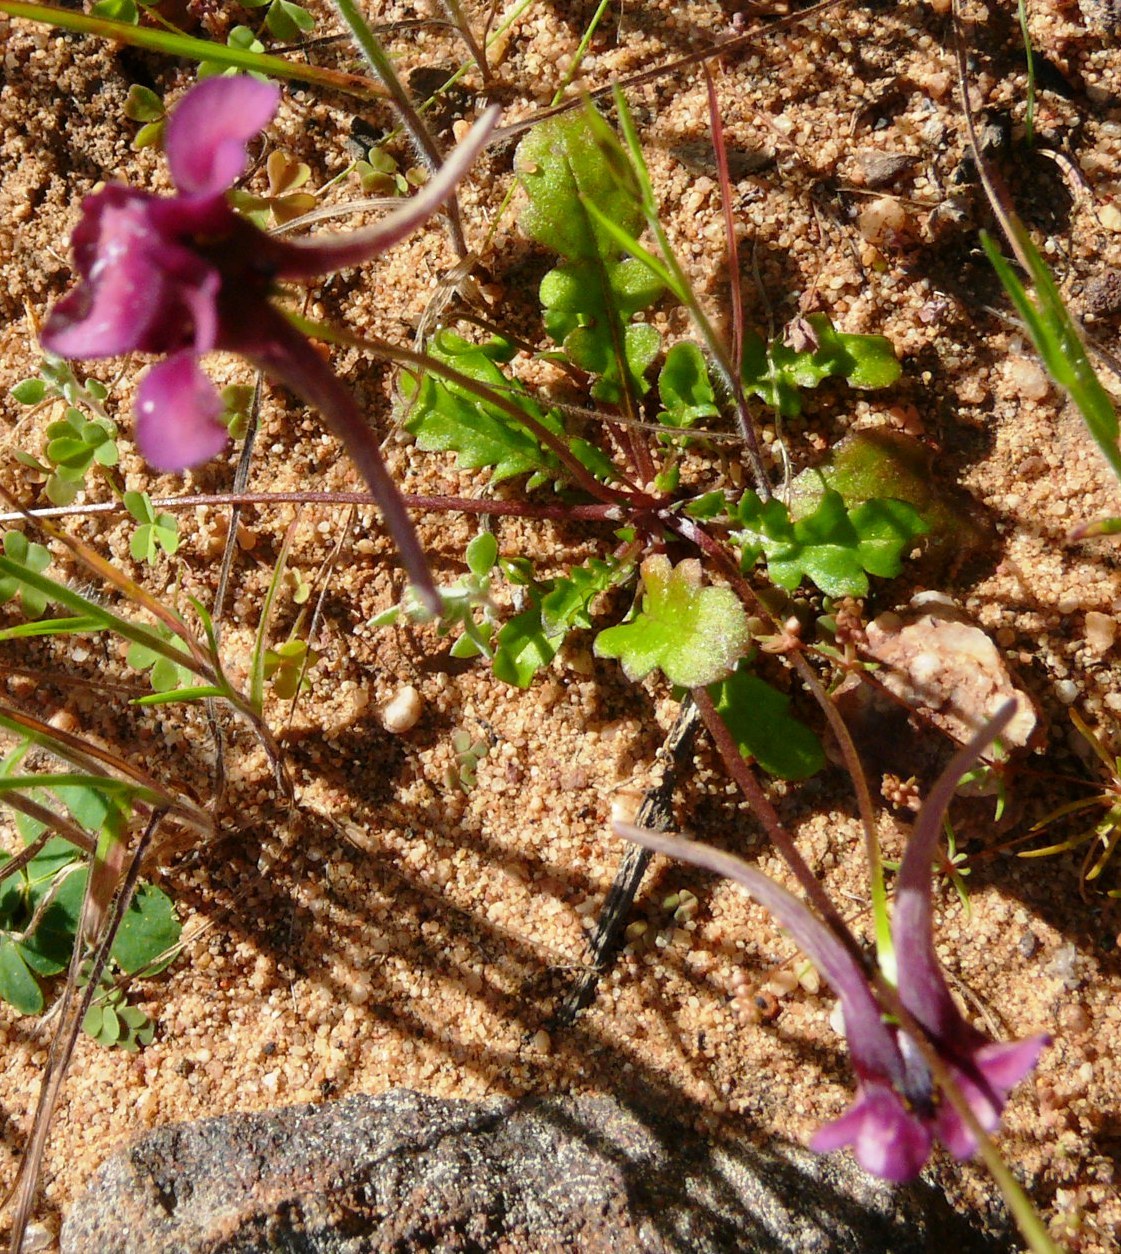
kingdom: Plantae
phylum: Tracheophyta
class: Magnoliopsida
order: Lamiales
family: Scrophulariaceae
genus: Diascia
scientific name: Diascia whiteheadii
